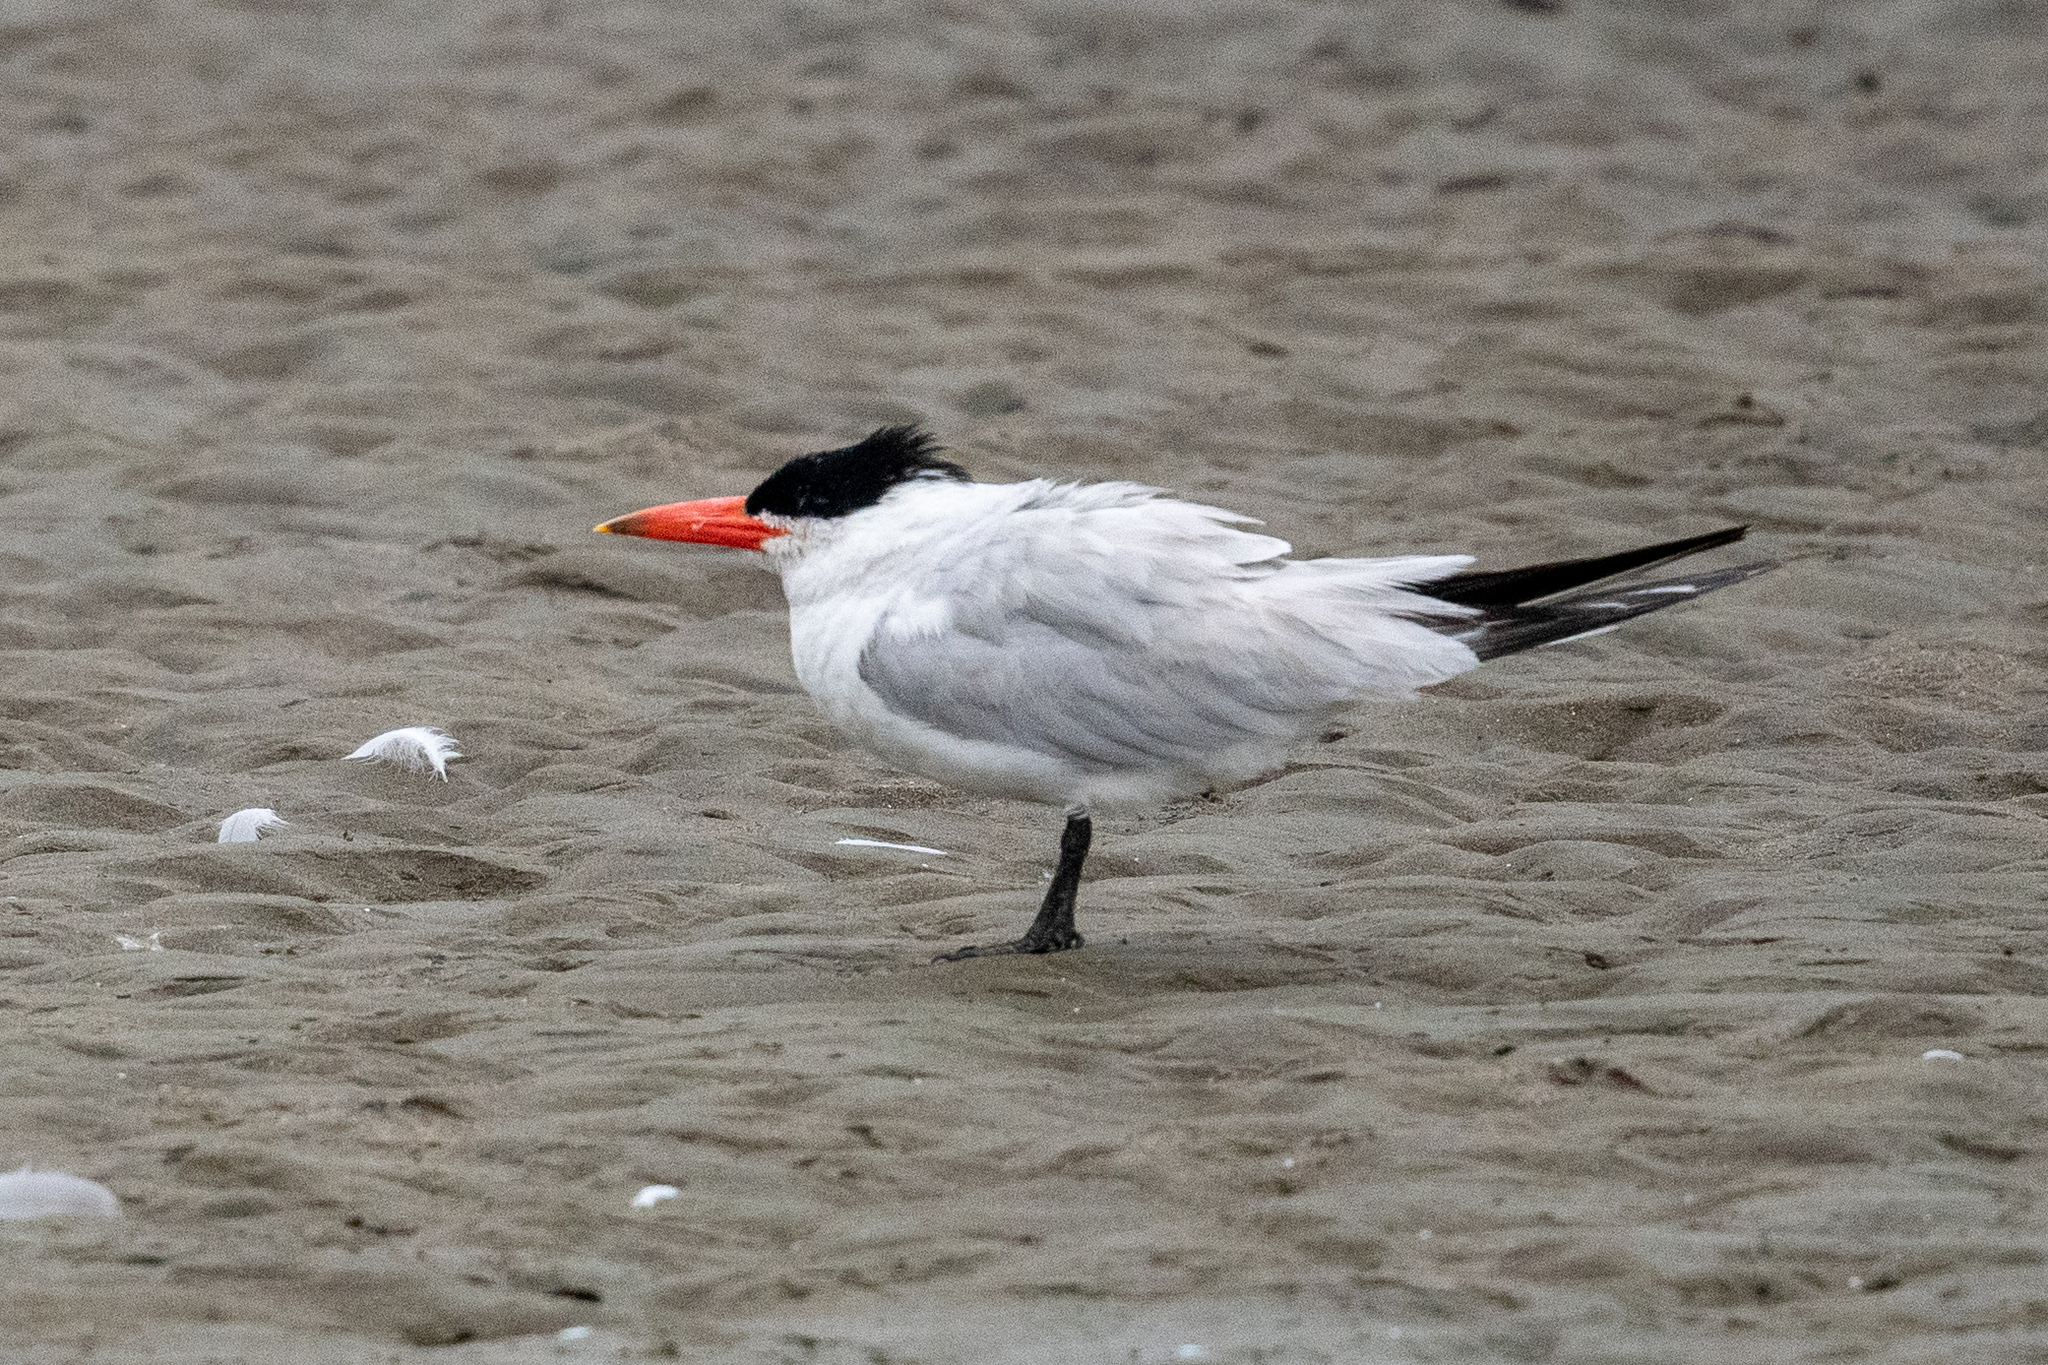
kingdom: Animalia
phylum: Chordata
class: Aves
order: Charadriiformes
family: Laridae
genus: Hydroprogne
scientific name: Hydroprogne caspia
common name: Caspian tern
